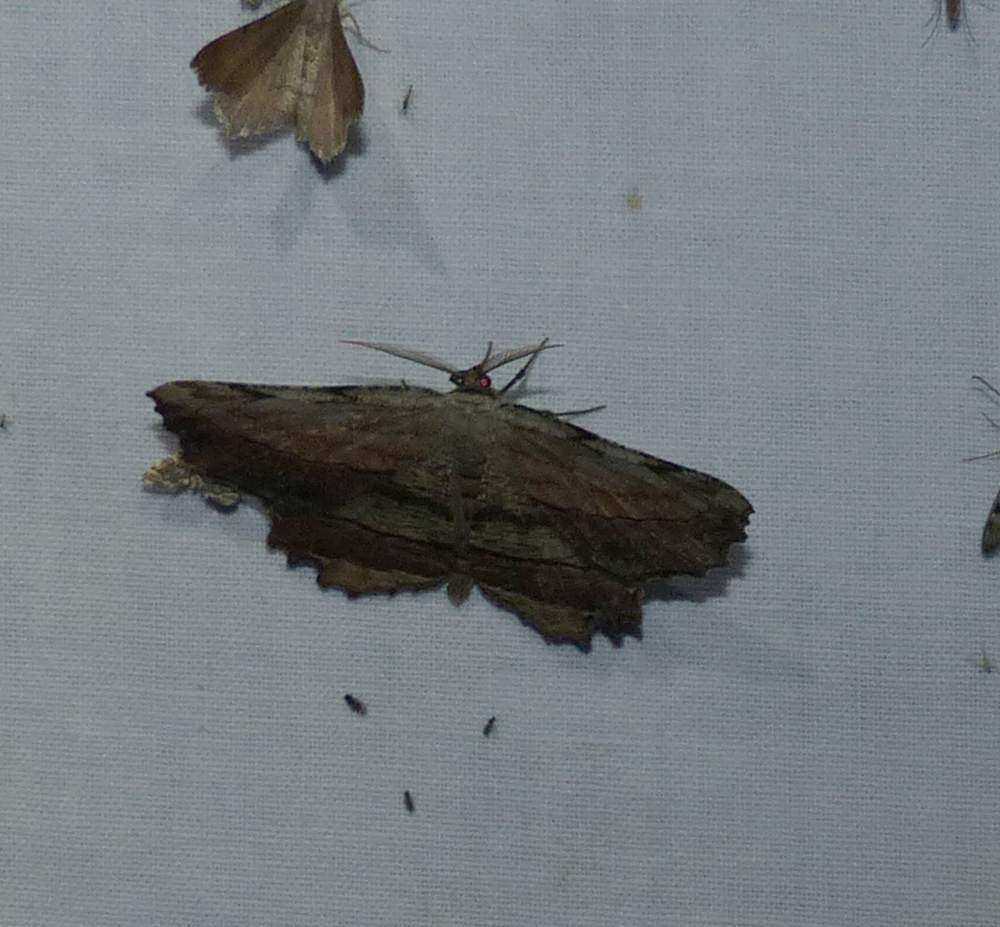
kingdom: Animalia
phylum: Arthropoda
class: Insecta
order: Lepidoptera
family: Geometridae
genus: Lytrosis
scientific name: Lytrosis unitaria
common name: Common lytrosis
